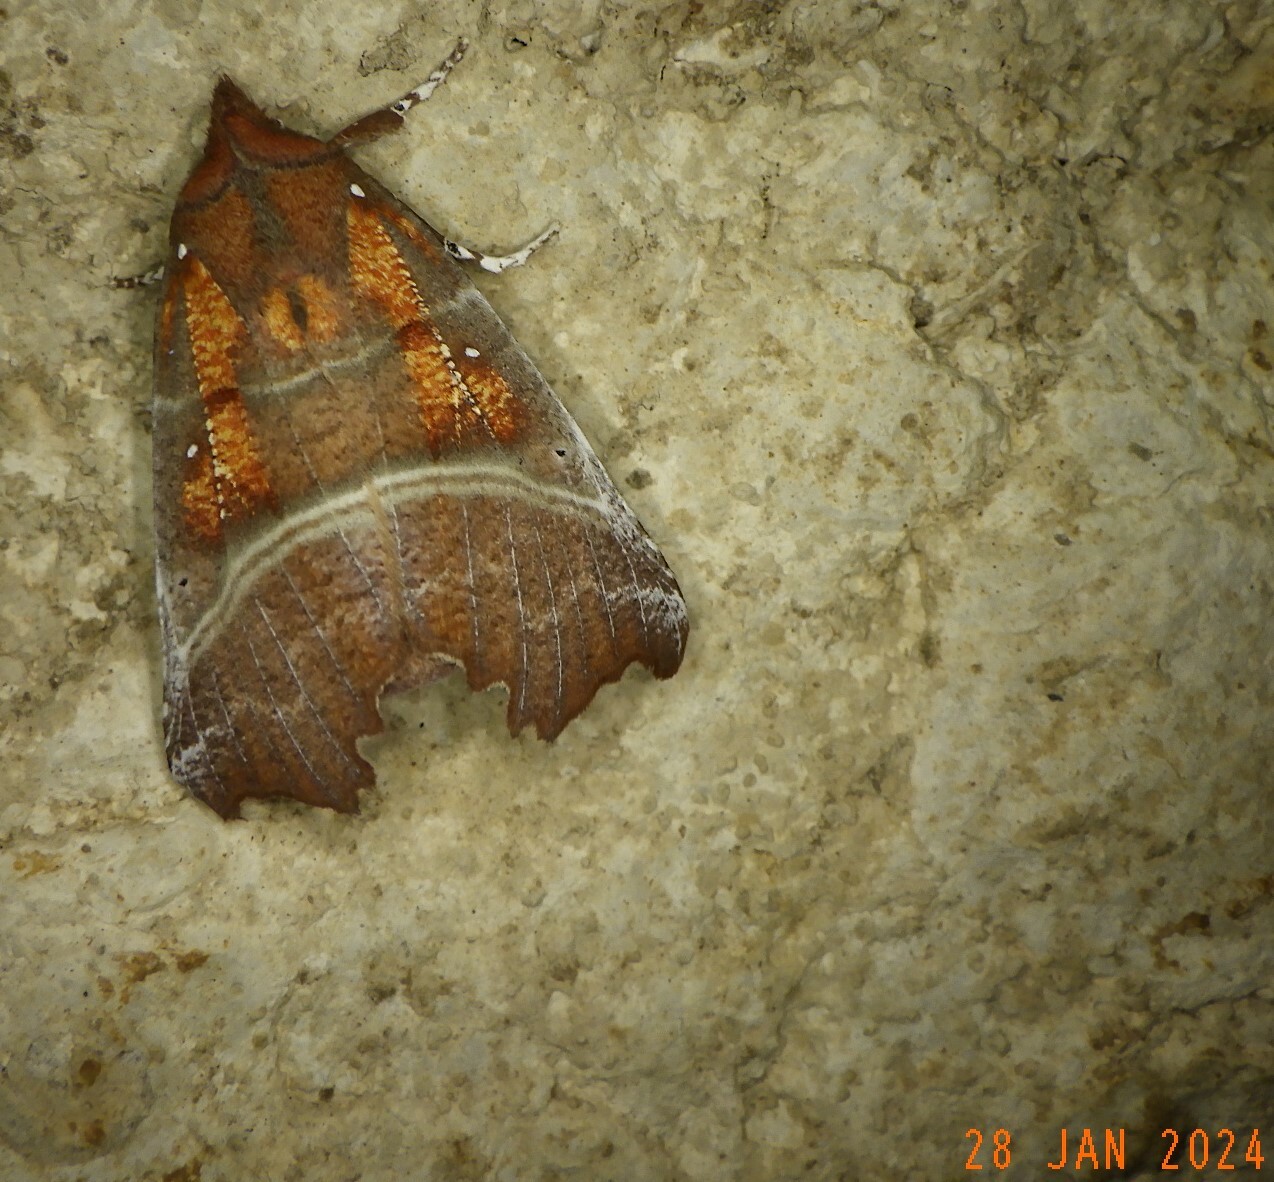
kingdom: Animalia
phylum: Arthropoda
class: Insecta
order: Lepidoptera
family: Erebidae
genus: Scoliopteryx
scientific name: Scoliopteryx libatrix
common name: Herald
